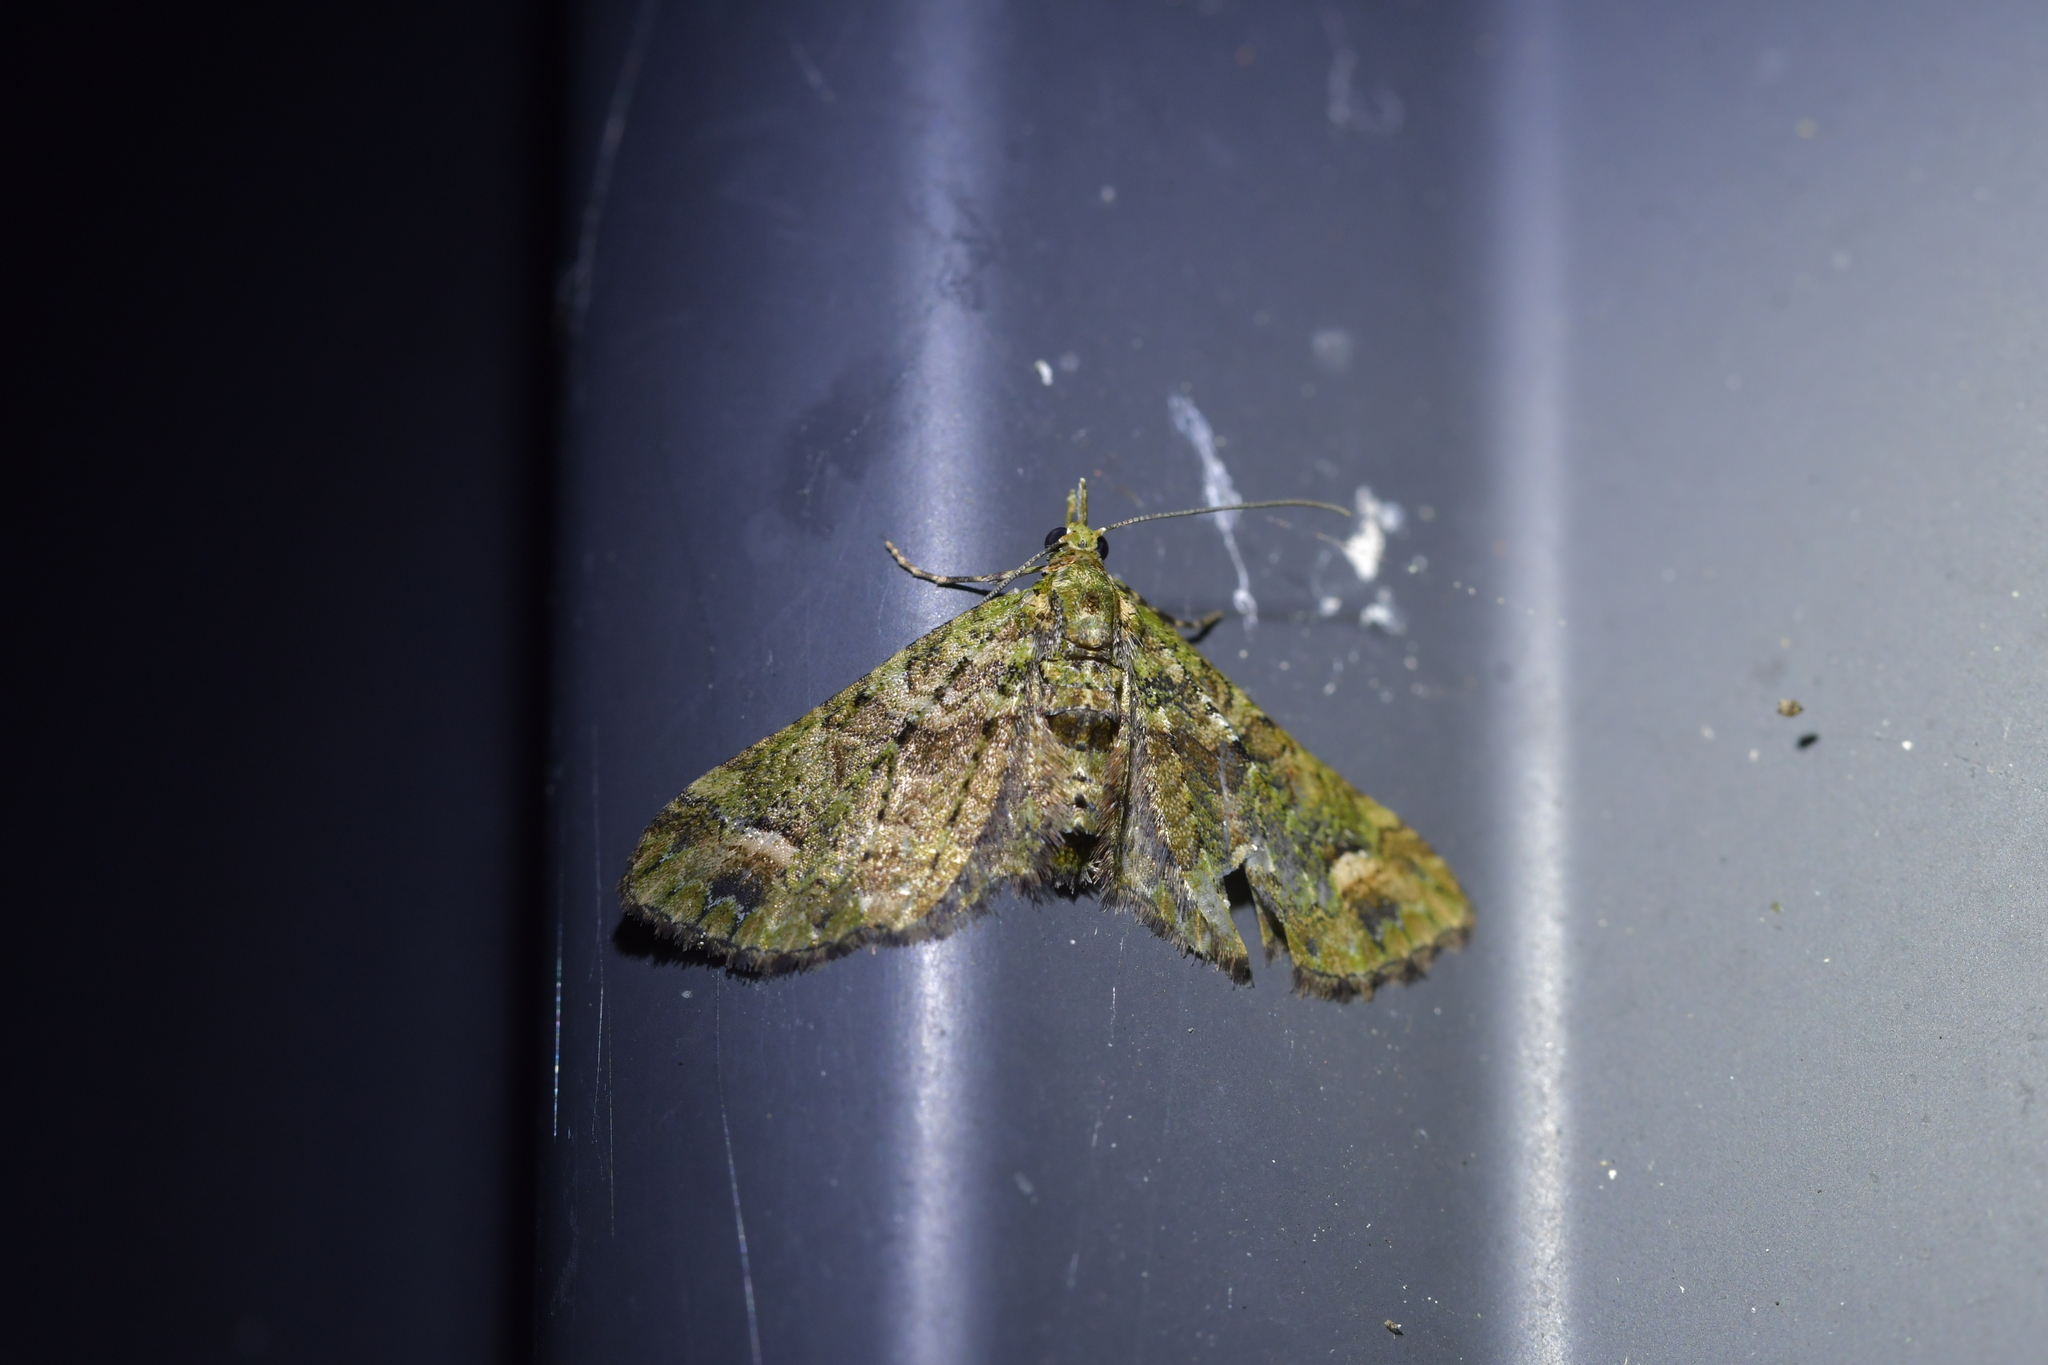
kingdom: Animalia
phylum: Arthropoda
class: Insecta
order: Lepidoptera
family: Geometridae
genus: Idaea
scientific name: Idaea mutanda
